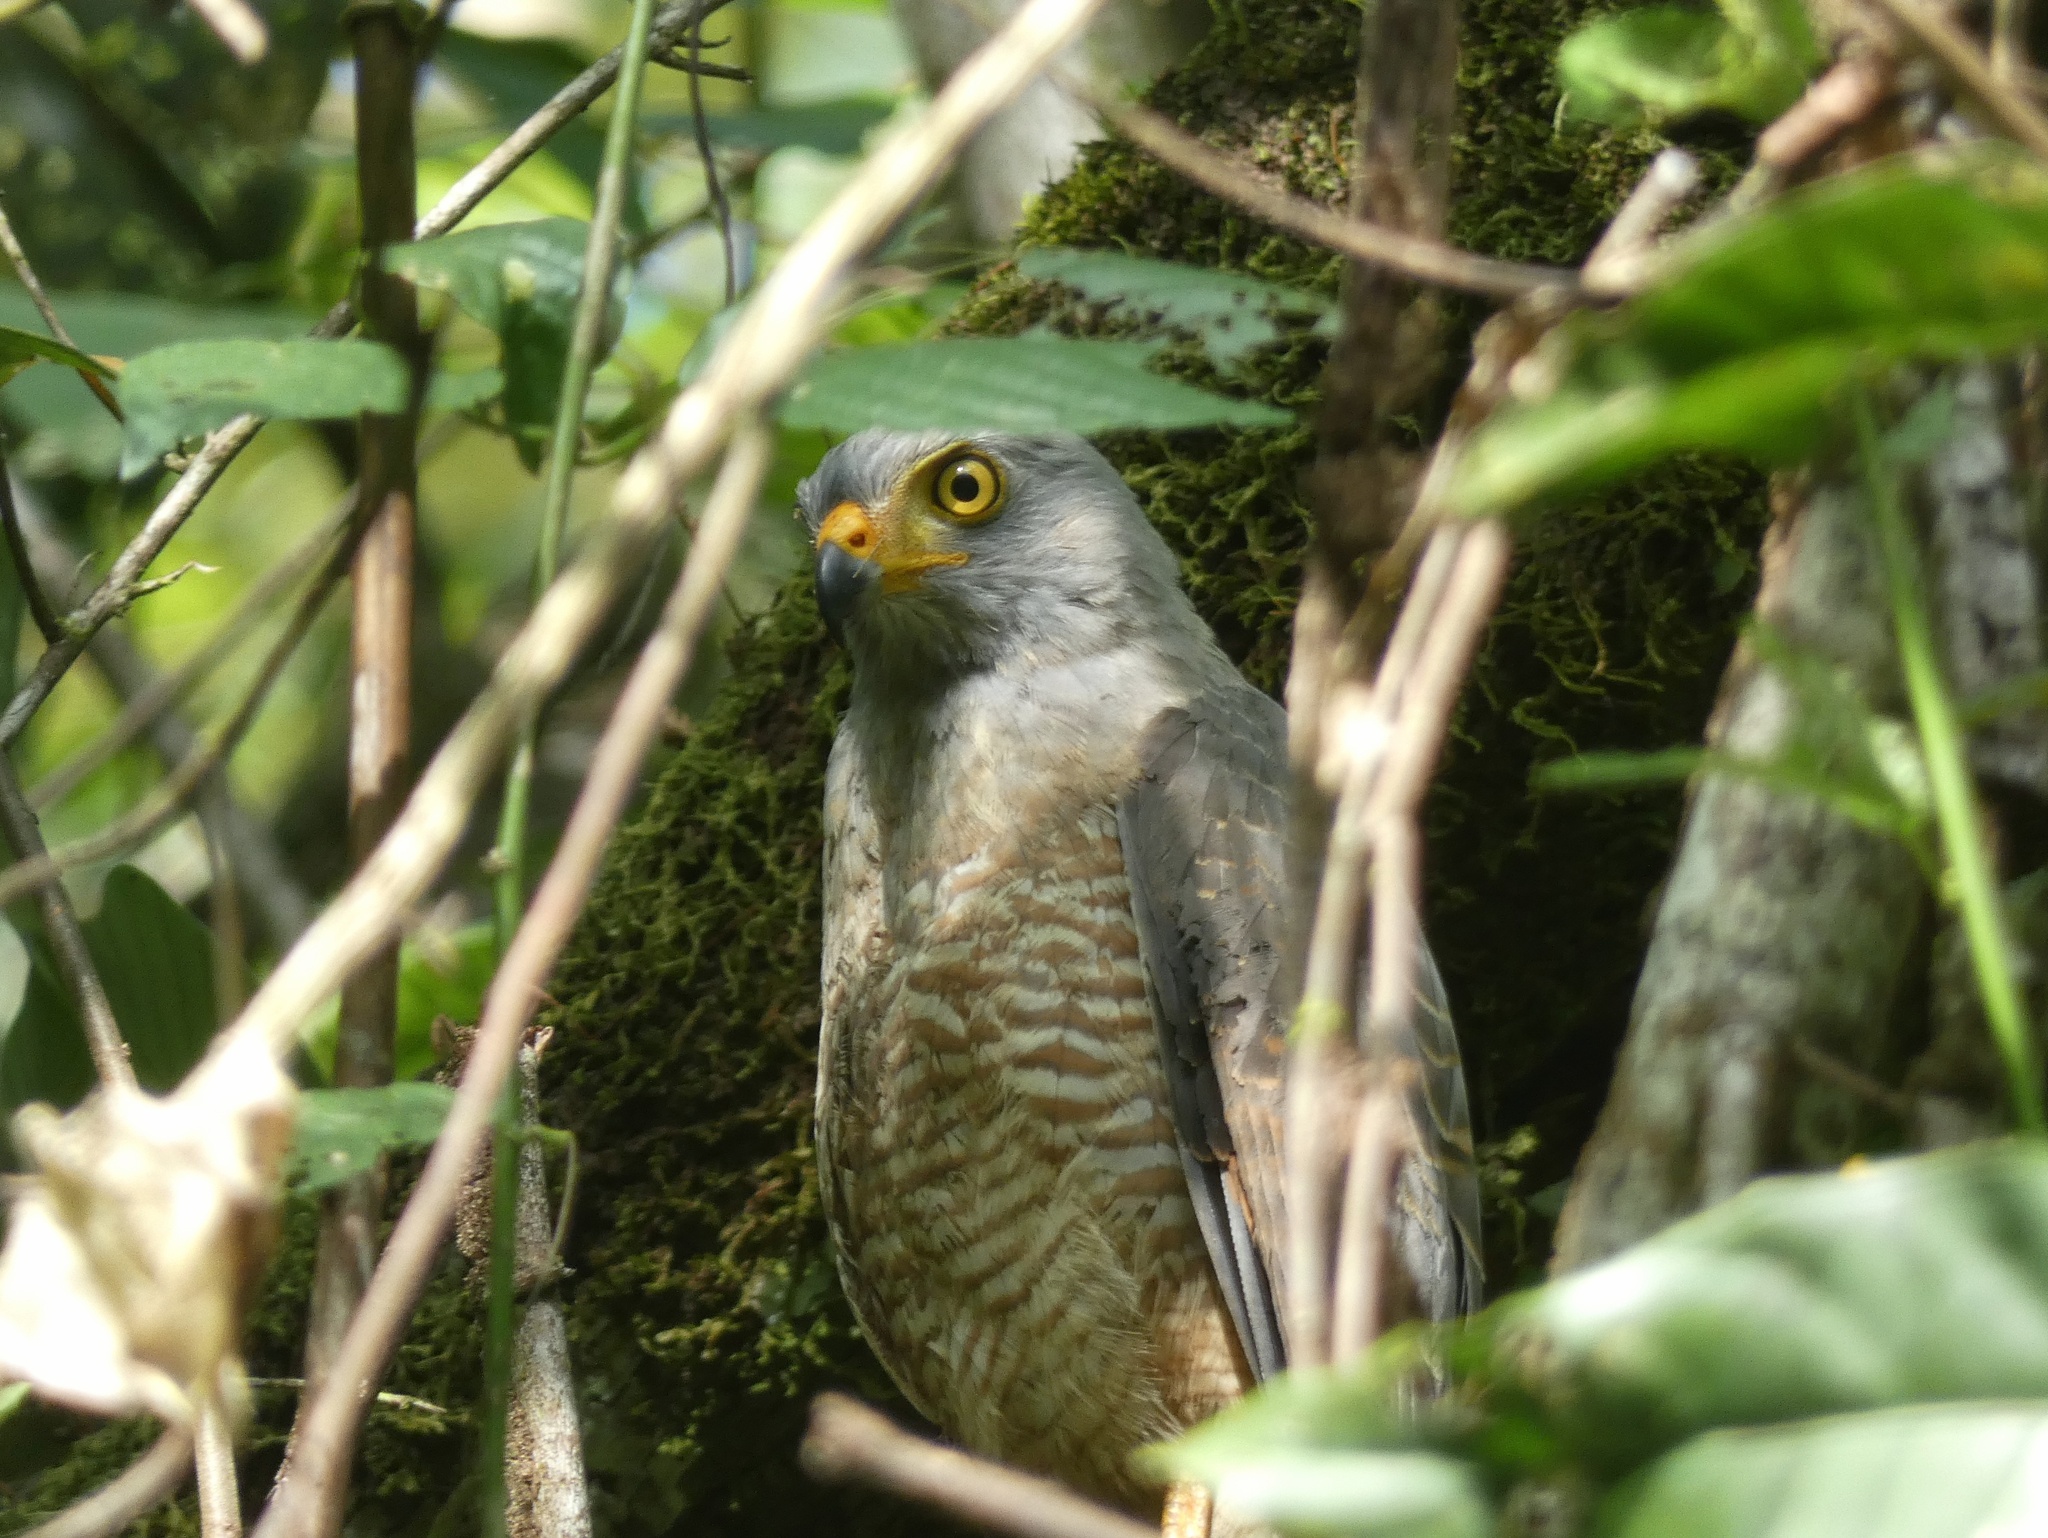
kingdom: Animalia
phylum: Chordata
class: Aves
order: Accipitriformes
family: Accipitridae
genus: Rupornis
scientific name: Rupornis magnirostris
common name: Roadside hawk
